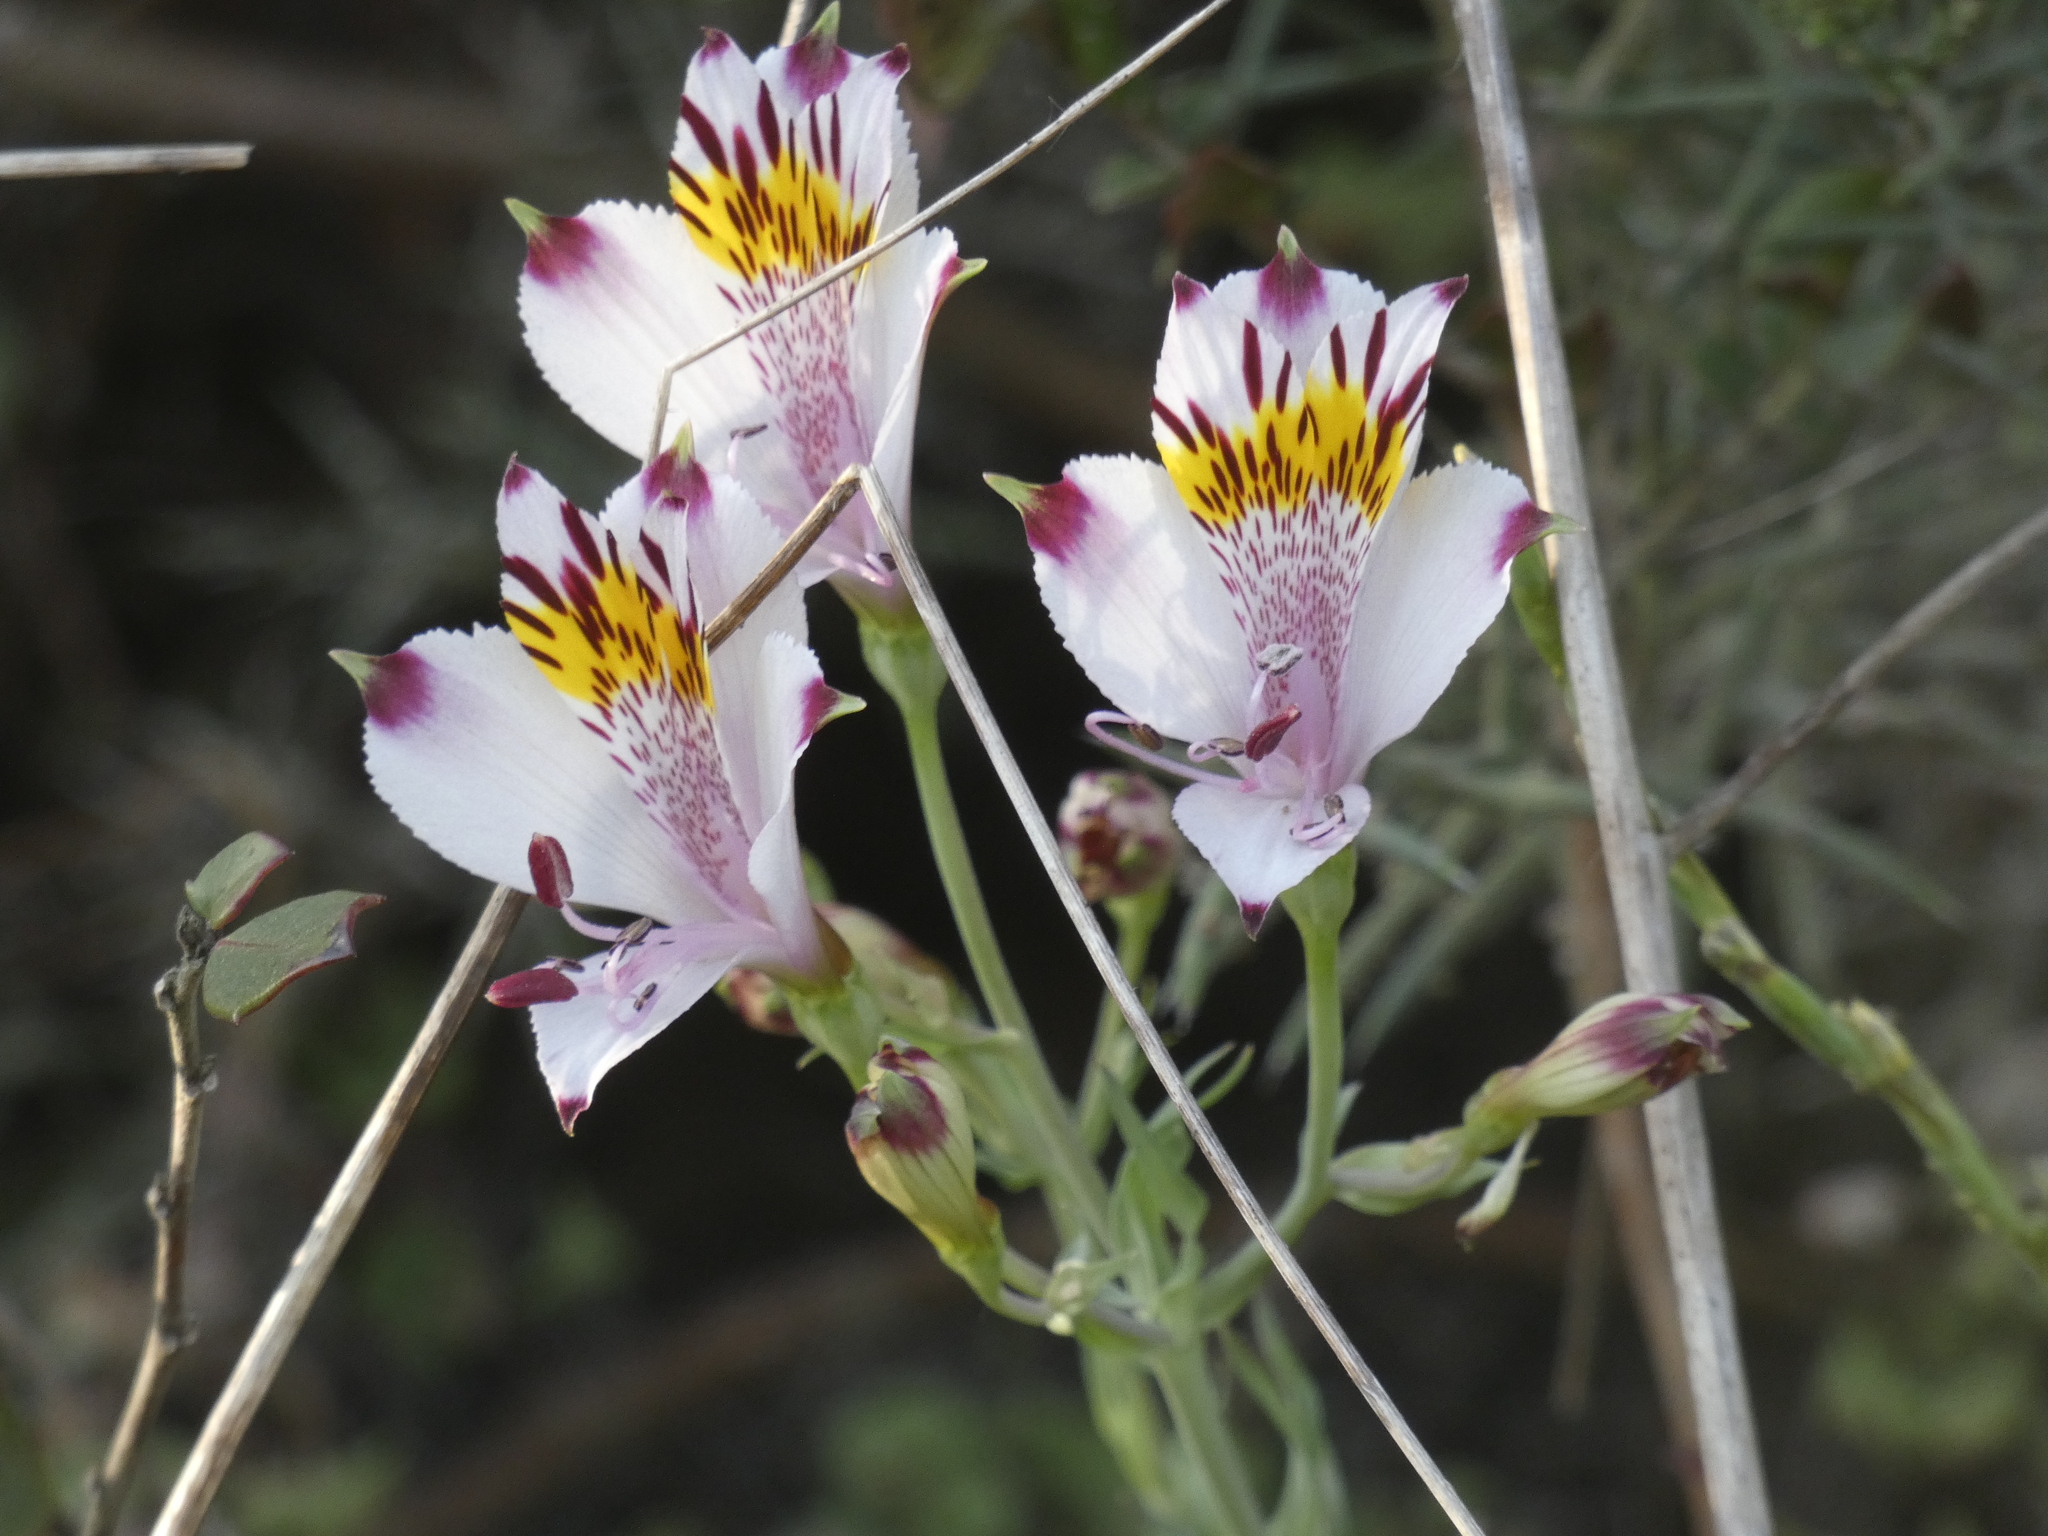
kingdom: Plantae
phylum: Tracheophyta
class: Liliopsida
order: Liliales
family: Alstroemeriaceae
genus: Alstroemeria
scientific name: Alstroemeria pulchra
